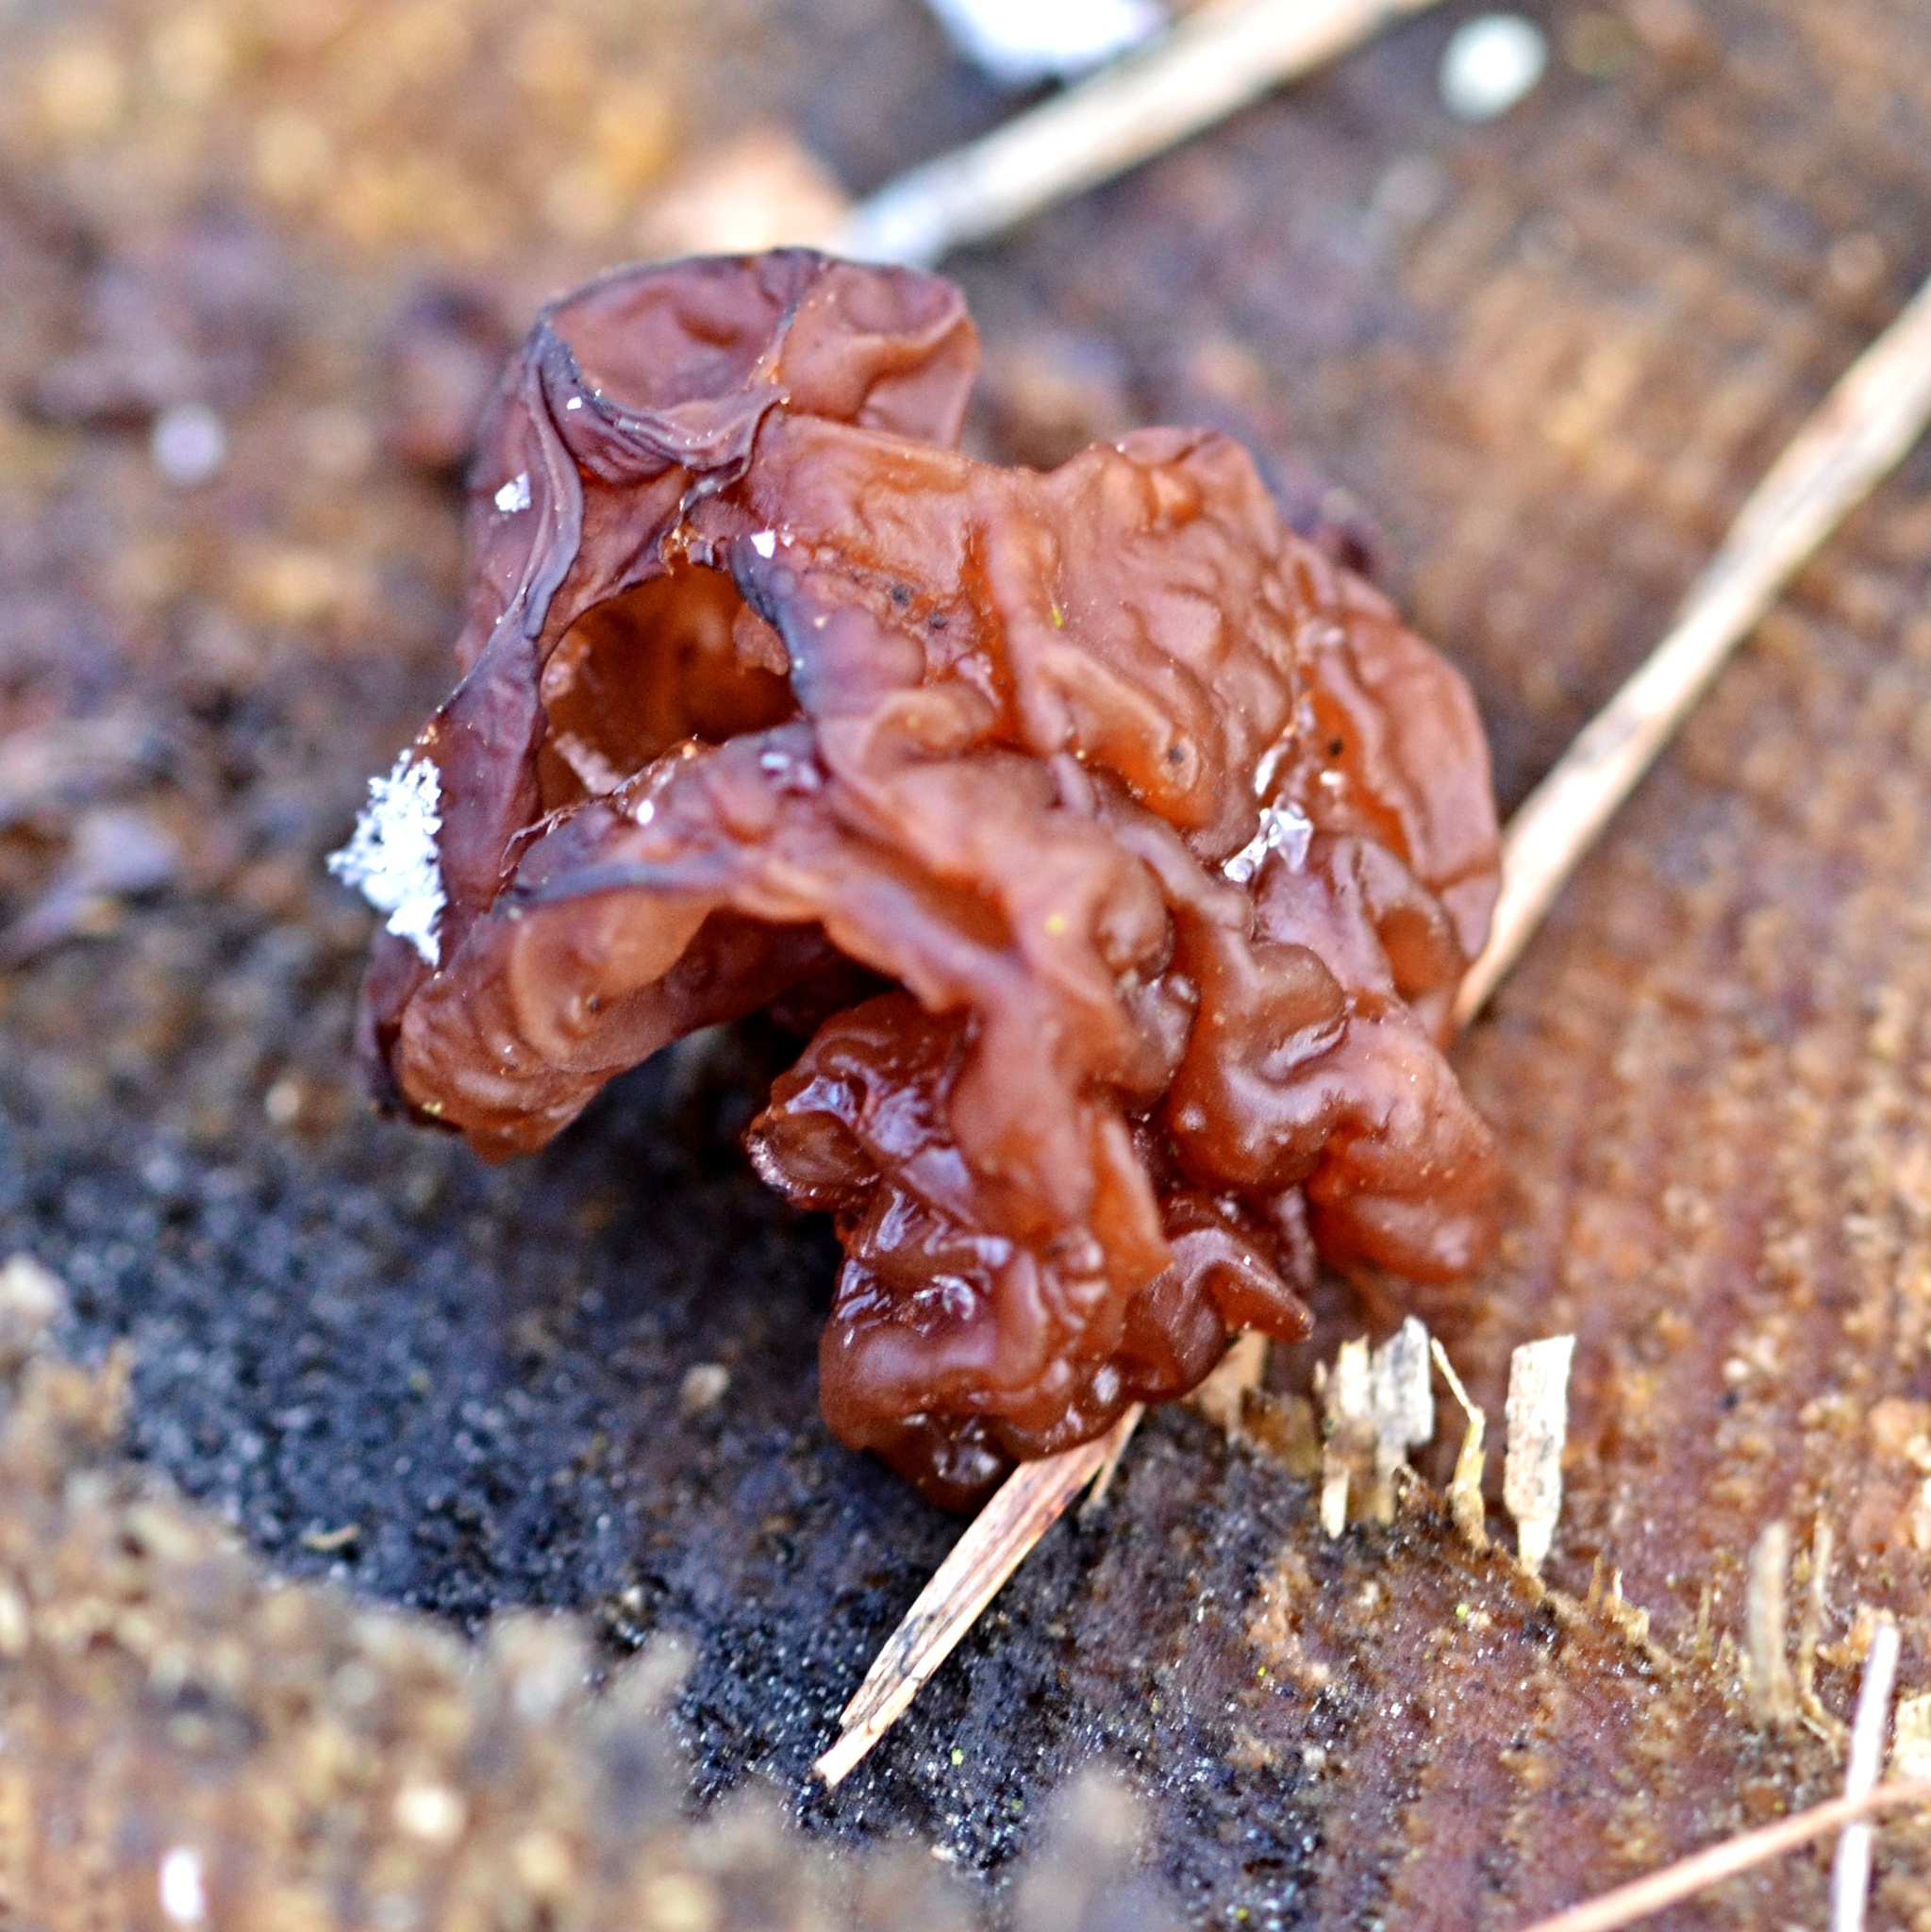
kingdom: Fungi
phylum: Basidiomycota
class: Agaricomycetes
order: Auriculariales
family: Auriculariaceae
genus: Exidia
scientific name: Exidia saccharina
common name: Pine jelly
